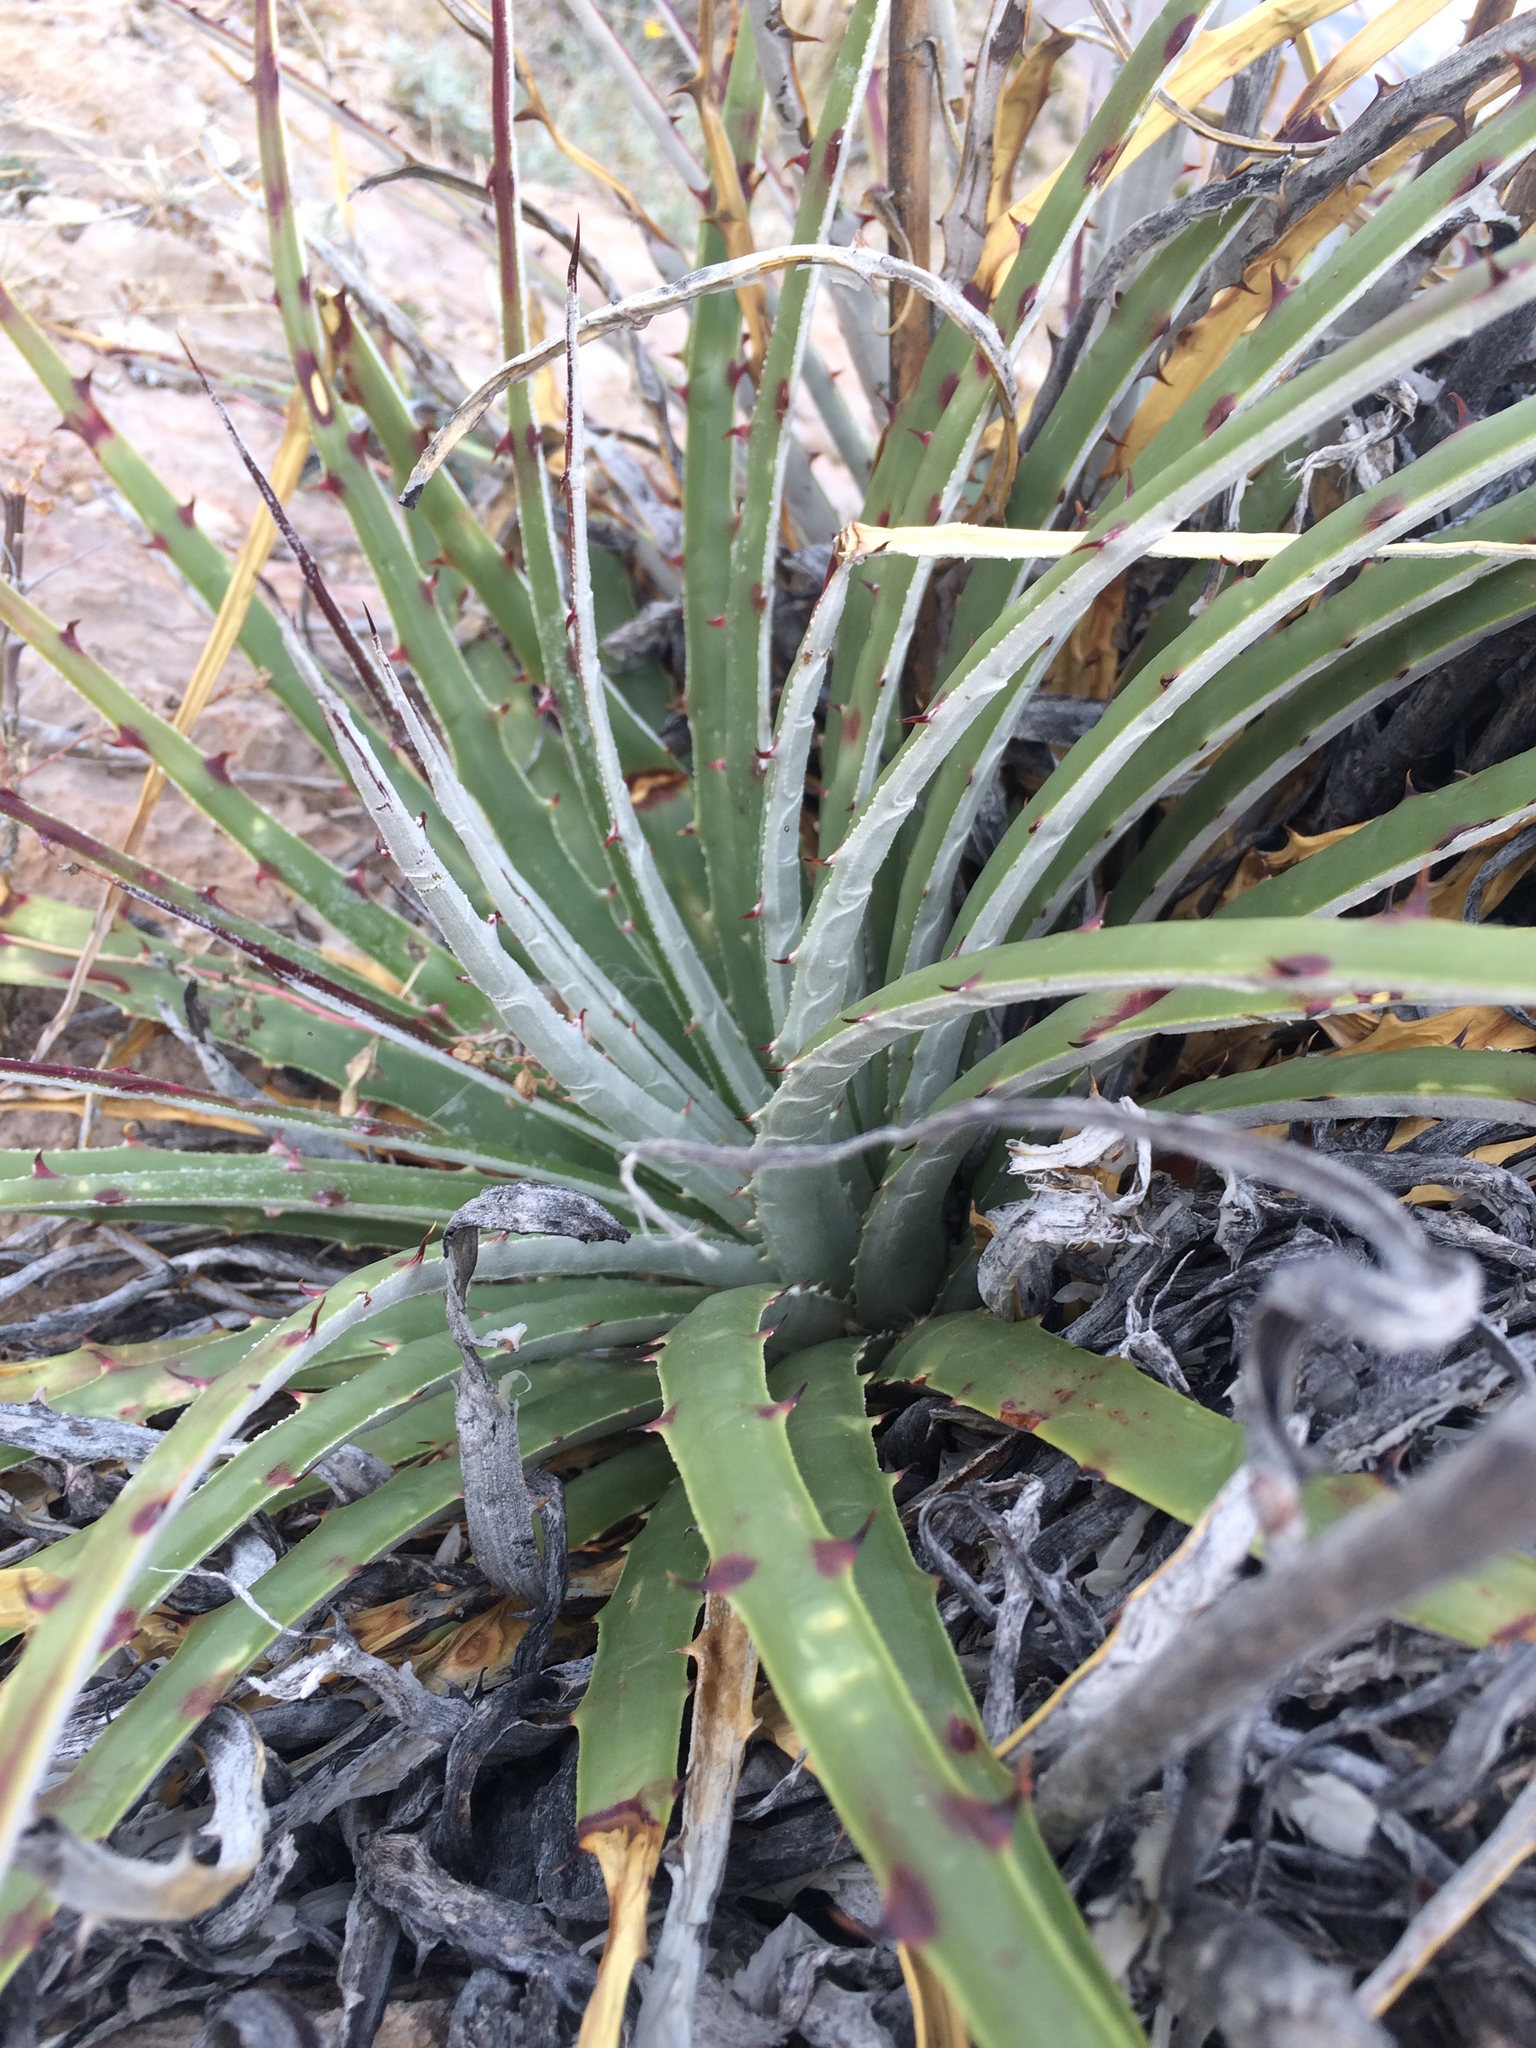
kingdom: Plantae
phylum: Tracheophyta
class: Liliopsida
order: Poales
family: Bromeliaceae
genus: Hechtia
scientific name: Hechtia texensis
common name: False agave
